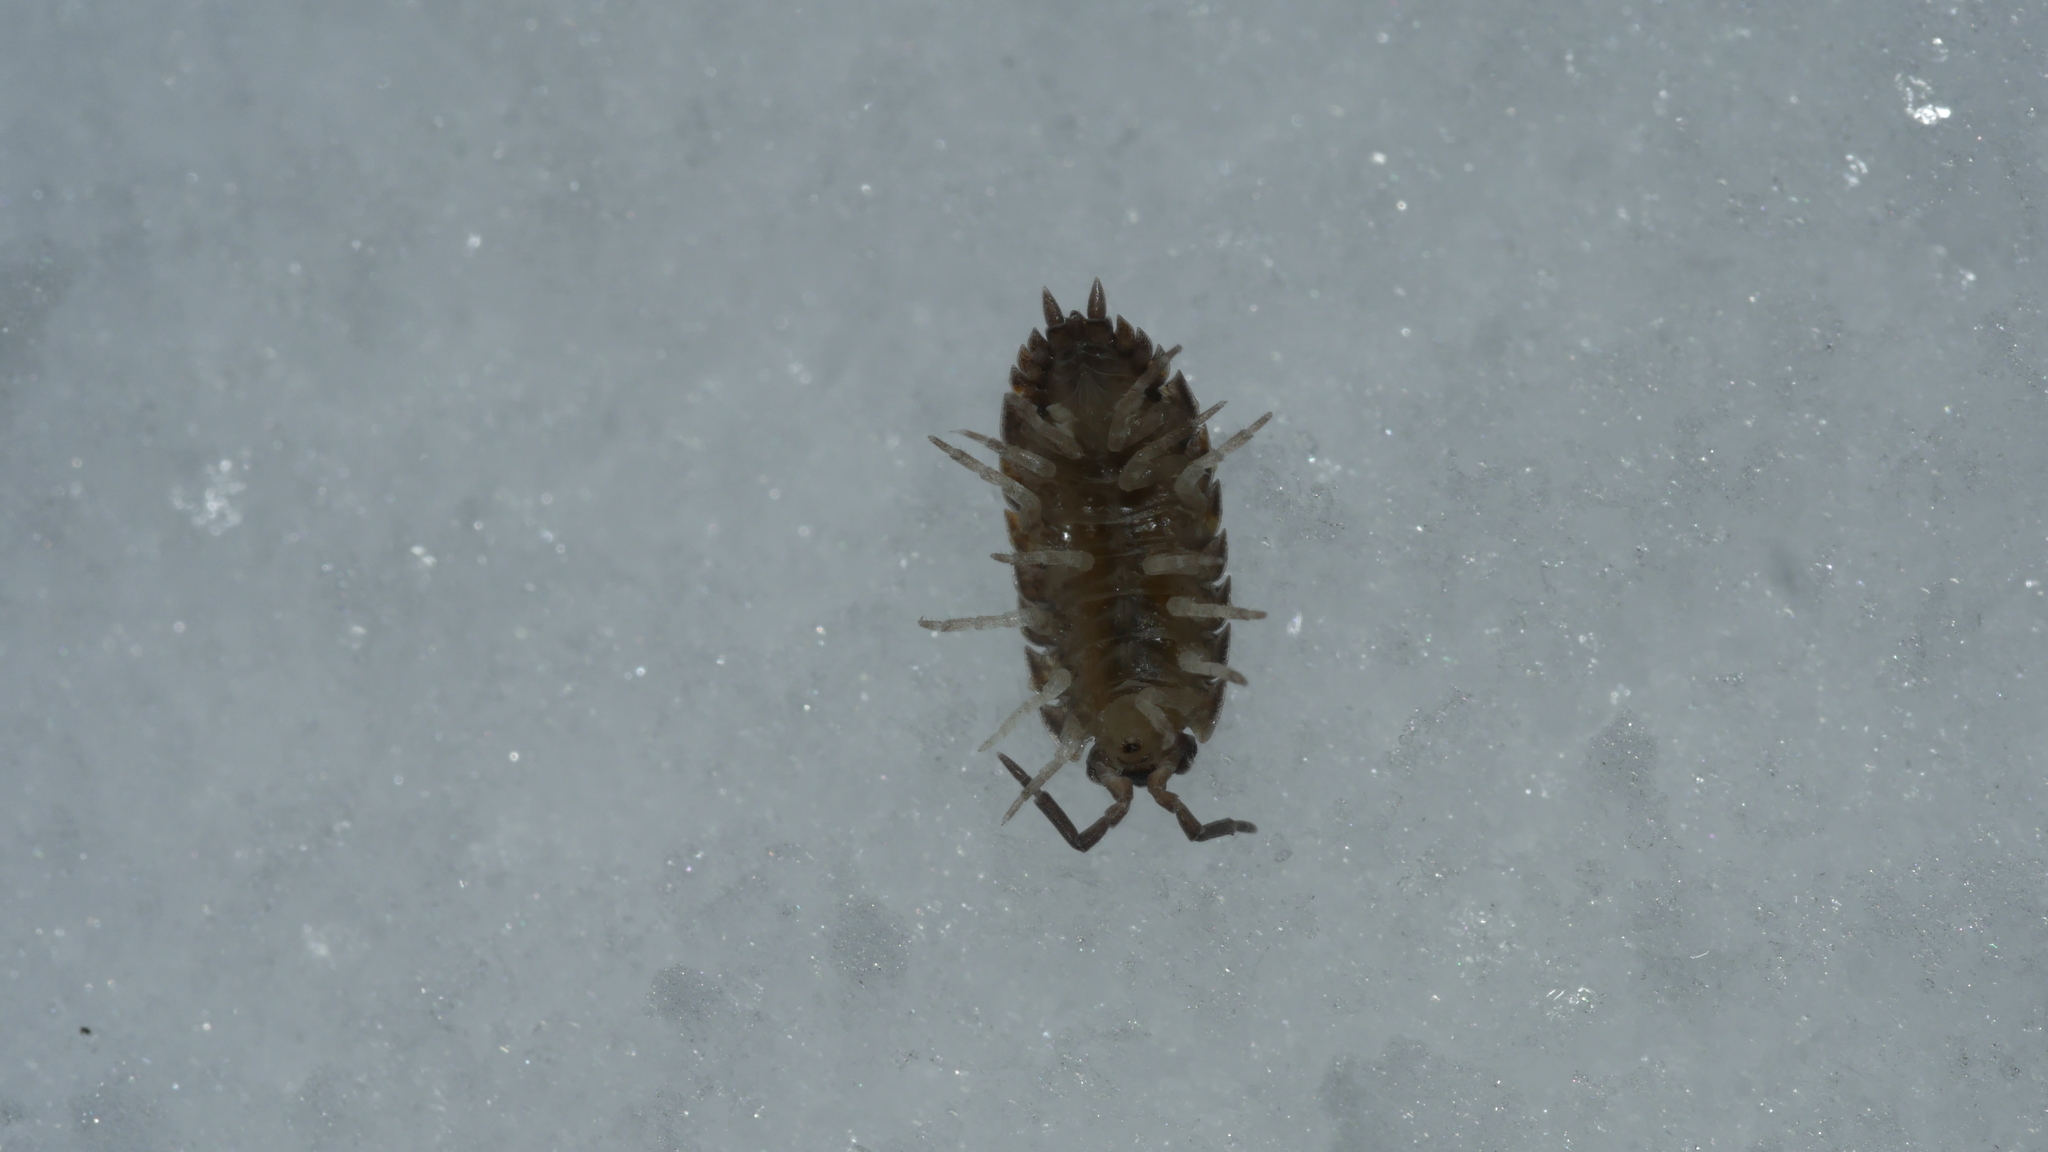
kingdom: Animalia
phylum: Arthropoda
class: Malacostraca
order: Isopoda
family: Porcellionidae
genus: Porcellio
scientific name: Porcellio scaber
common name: Common rough woodlouse
